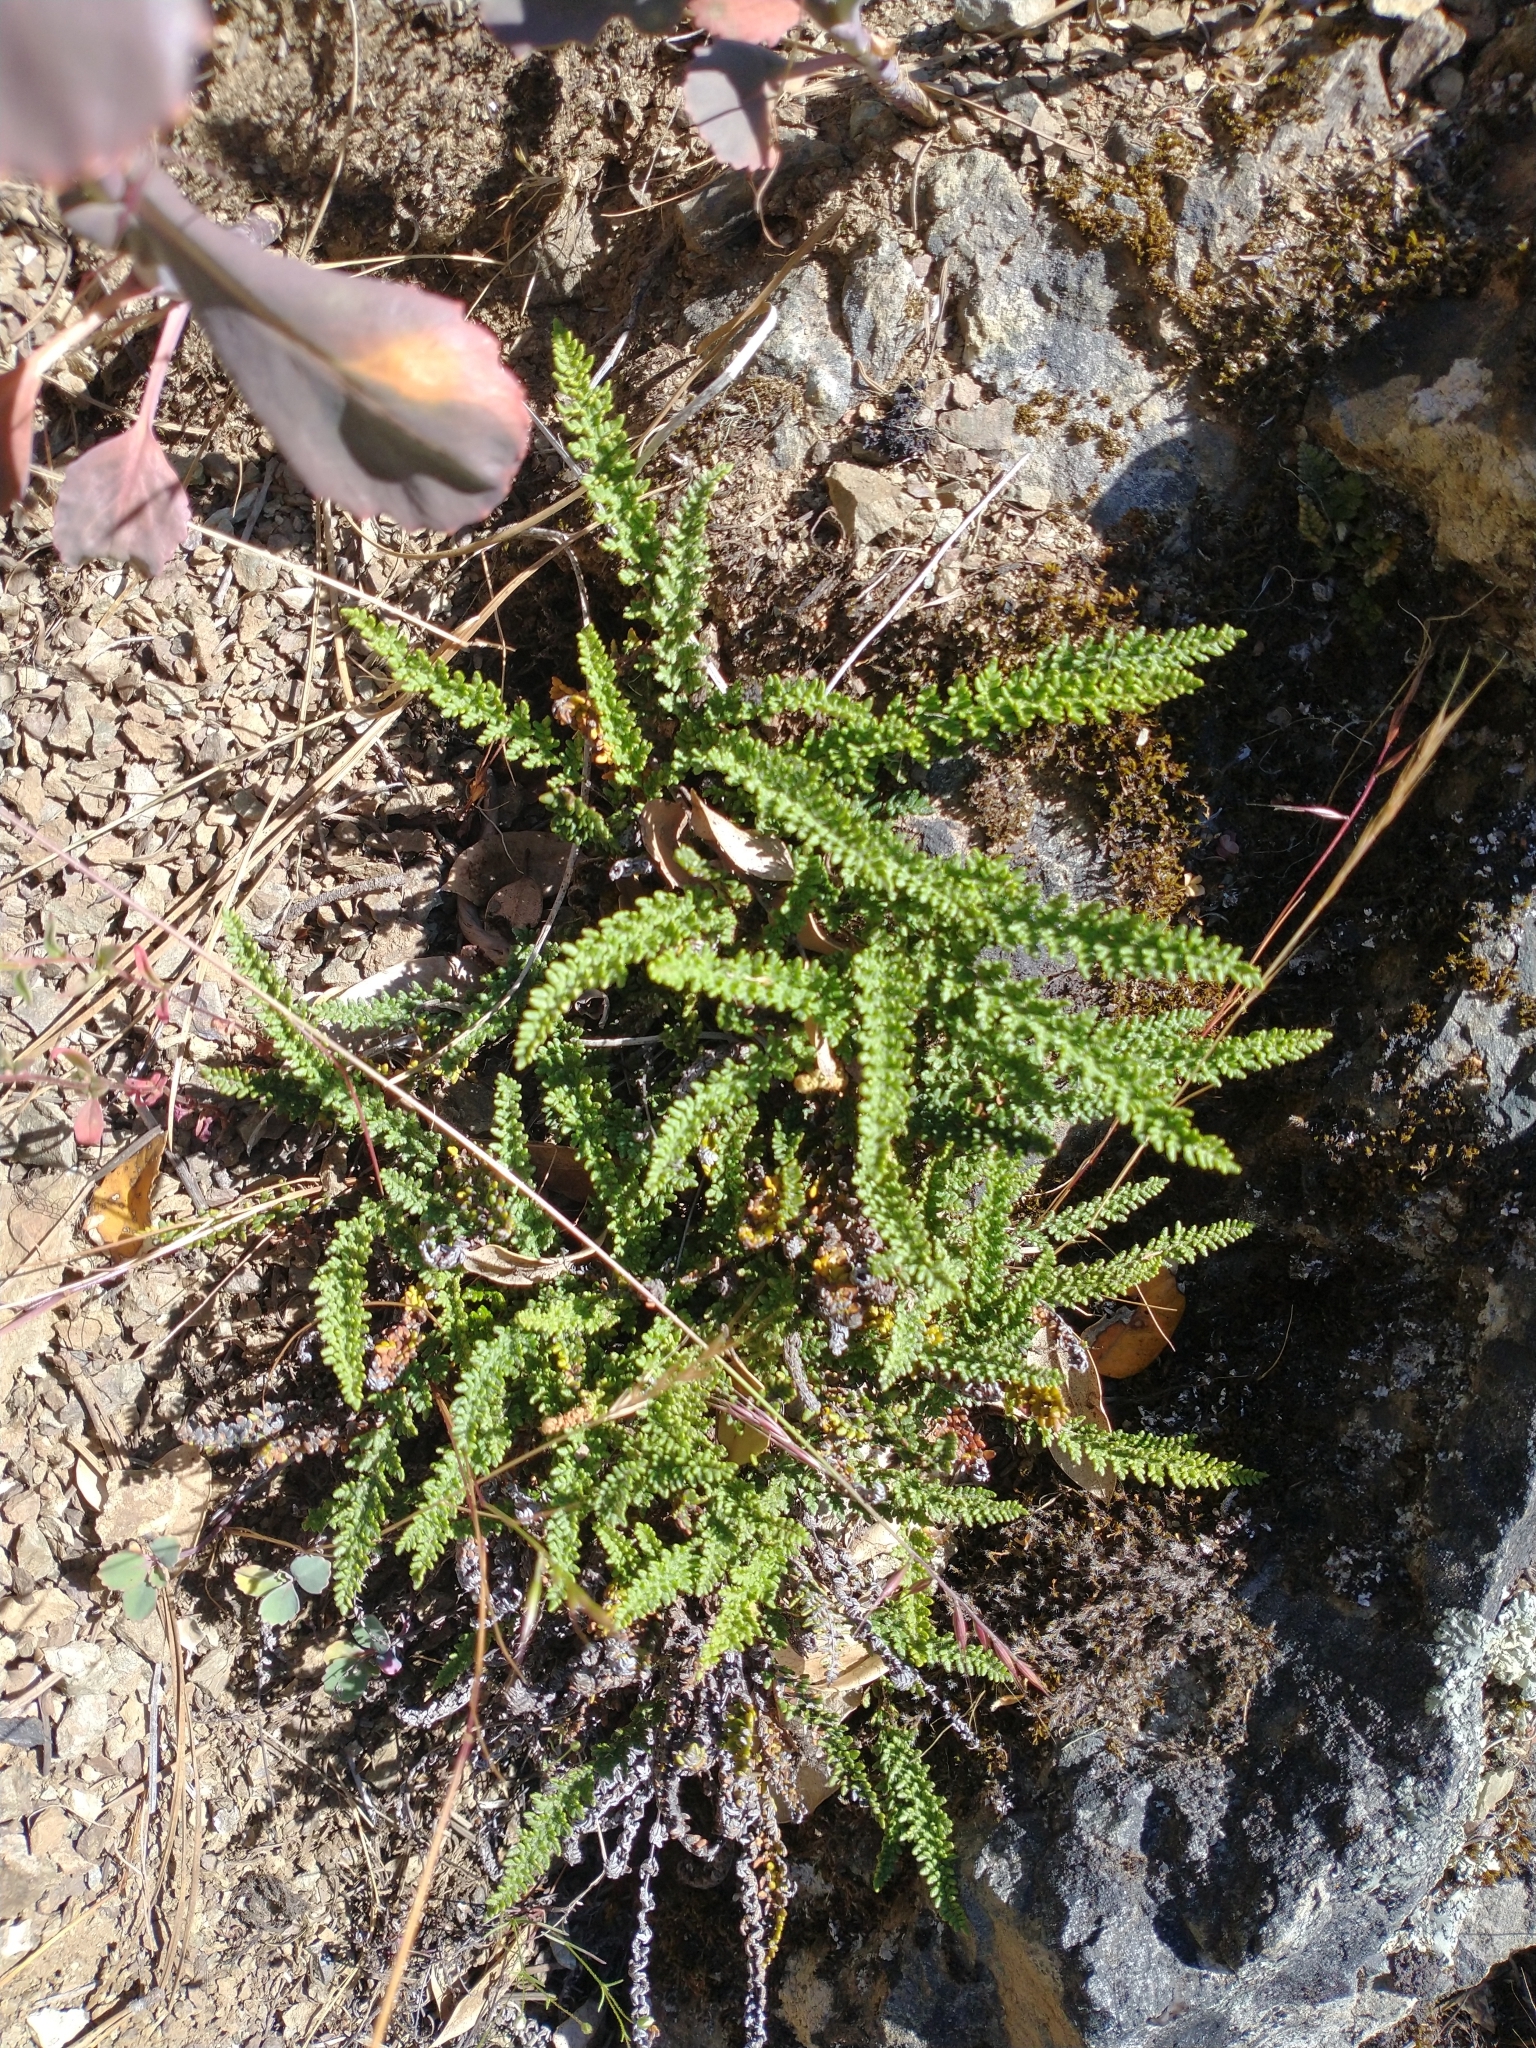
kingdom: Plantae
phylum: Tracheophyta
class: Polypodiopsida
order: Polypodiales
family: Pteridaceae
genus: Myriopteris
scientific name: Myriopteris gracillima
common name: Lace fern
